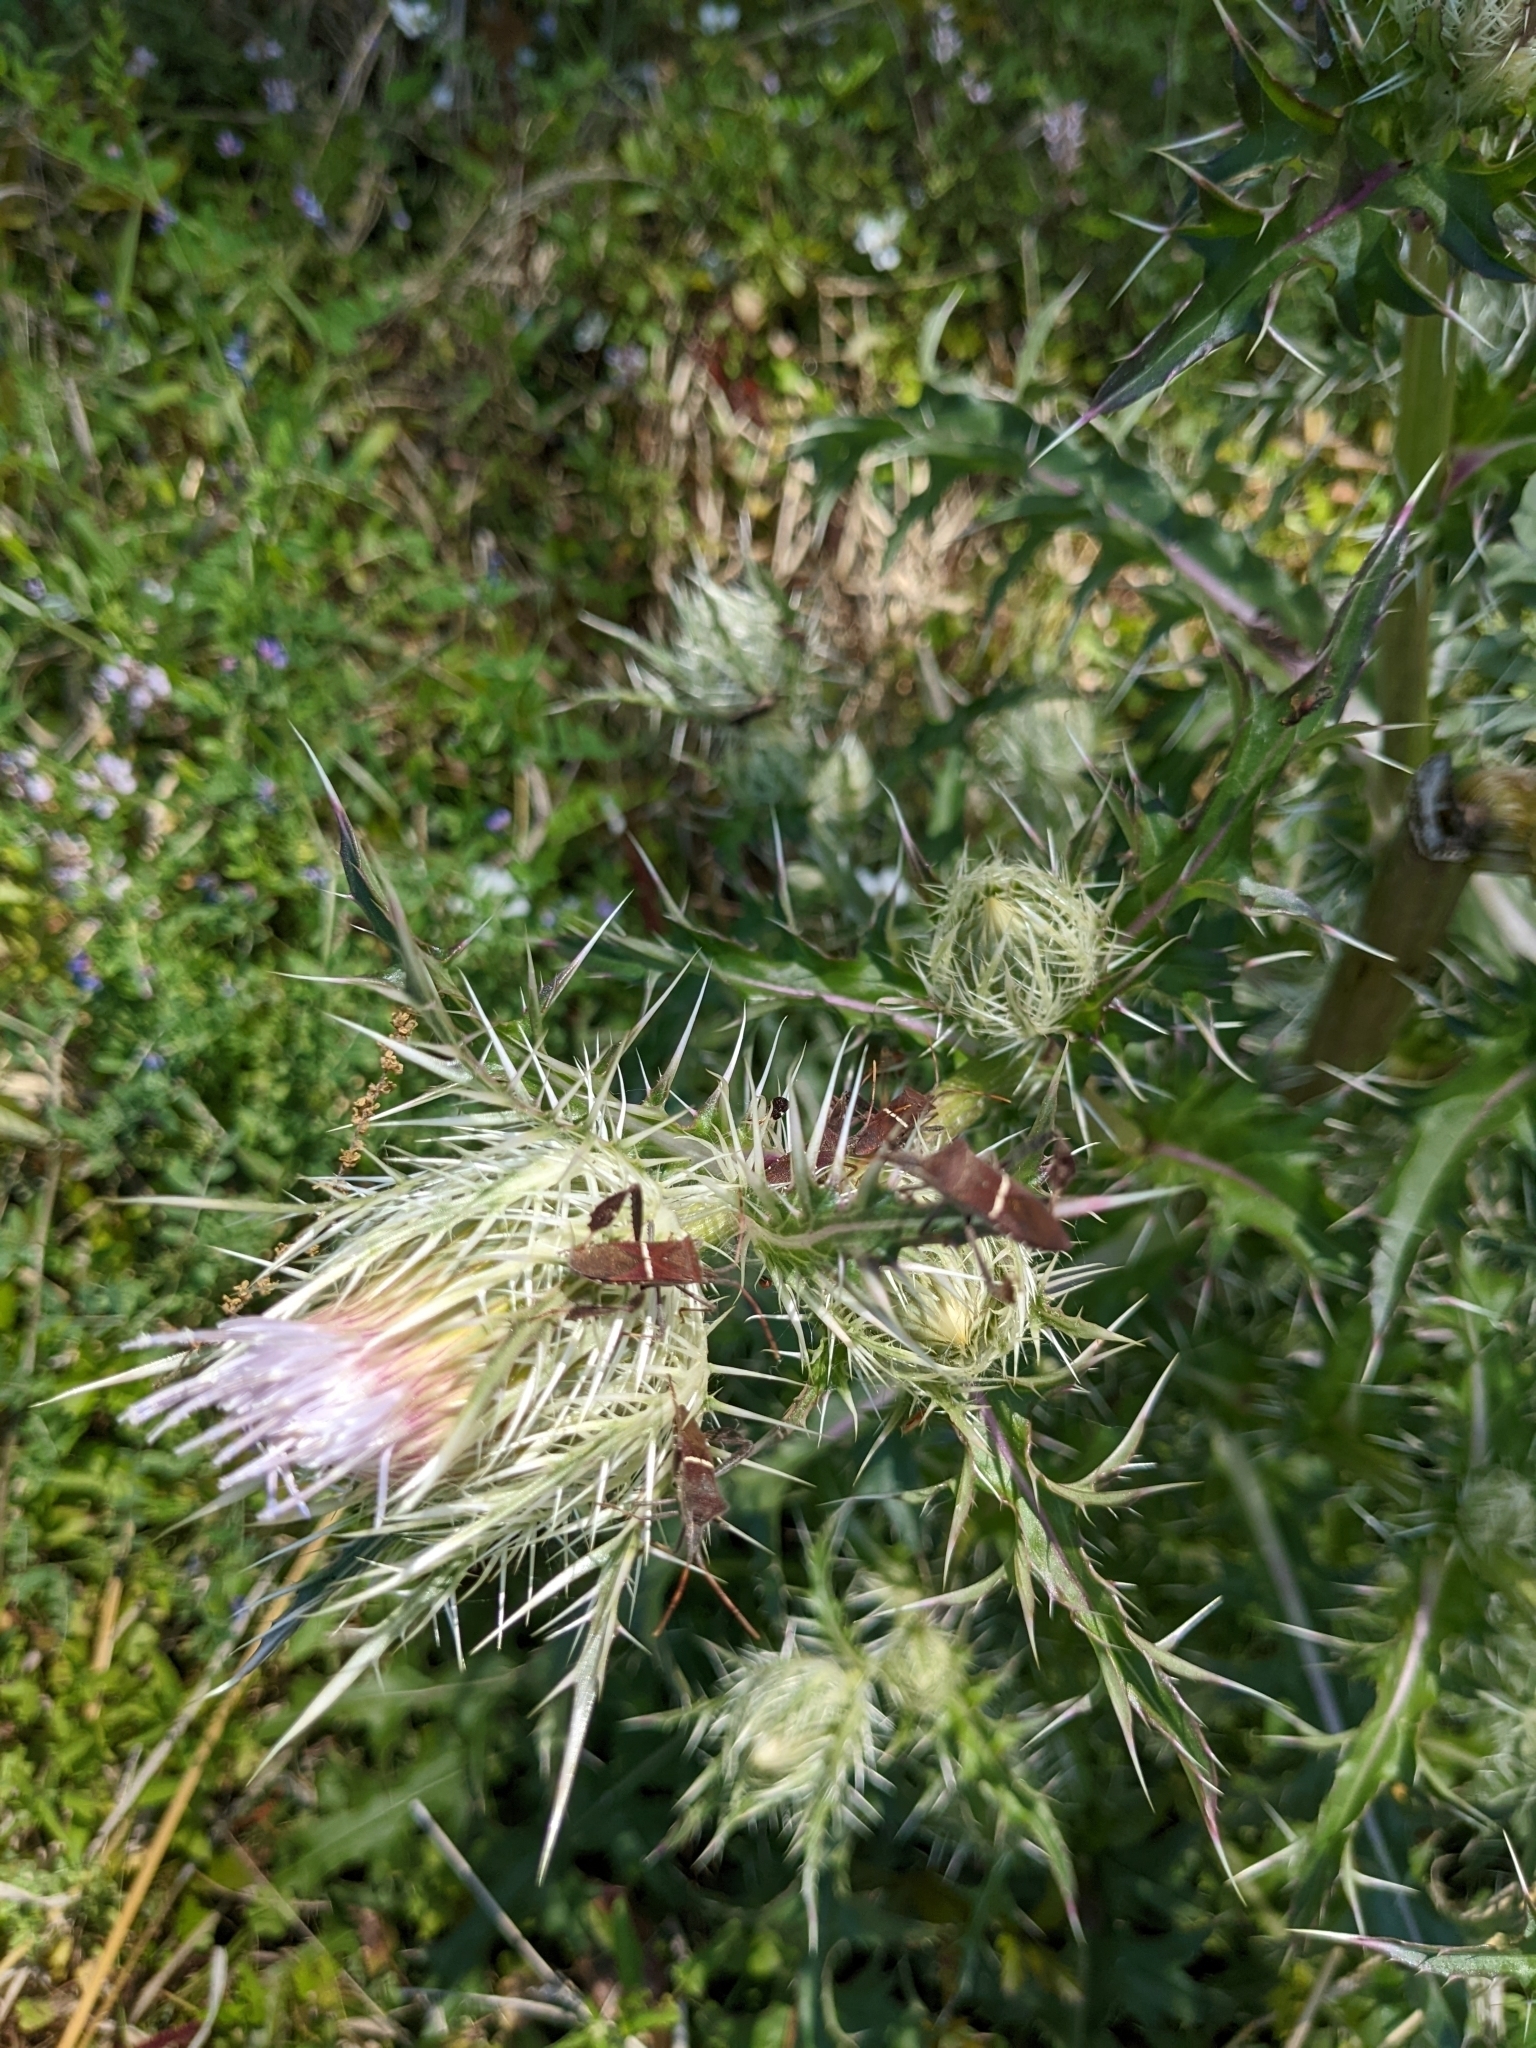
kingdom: Plantae
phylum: Tracheophyta
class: Magnoliopsida
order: Asterales
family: Asteraceae
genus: Cirsium
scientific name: Cirsium horridulum
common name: Bristly thistle
